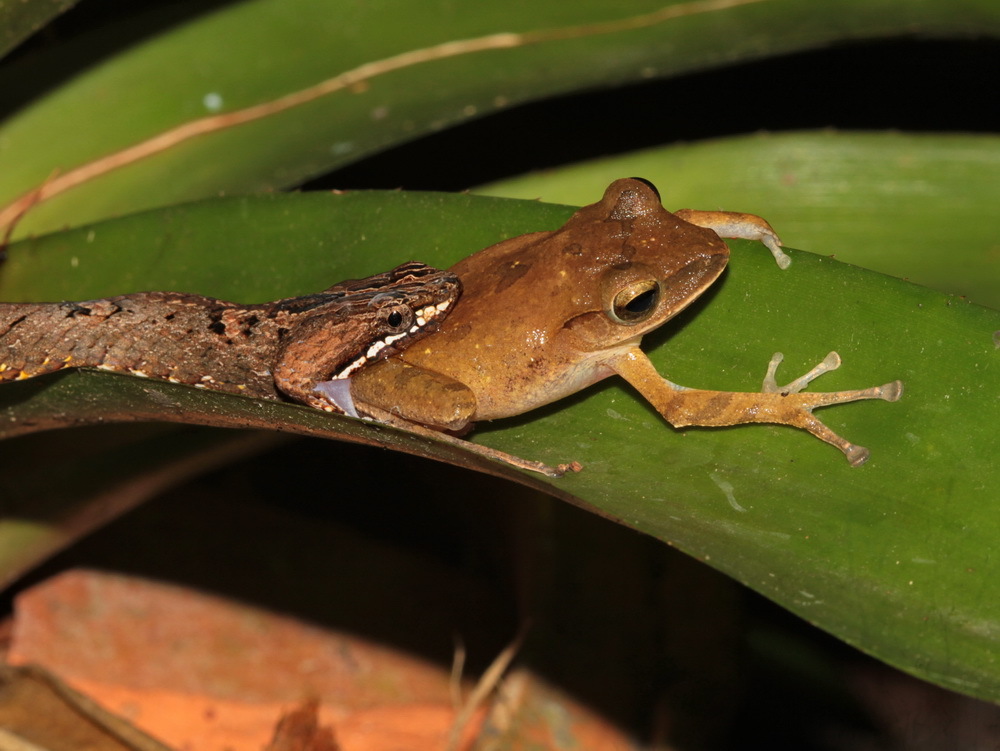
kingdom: Animalia
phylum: Chordata
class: Squamata
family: Pseudaspididae
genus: Psammodynastes
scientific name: Psammodynastes pulverulentus
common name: Common mock viper
